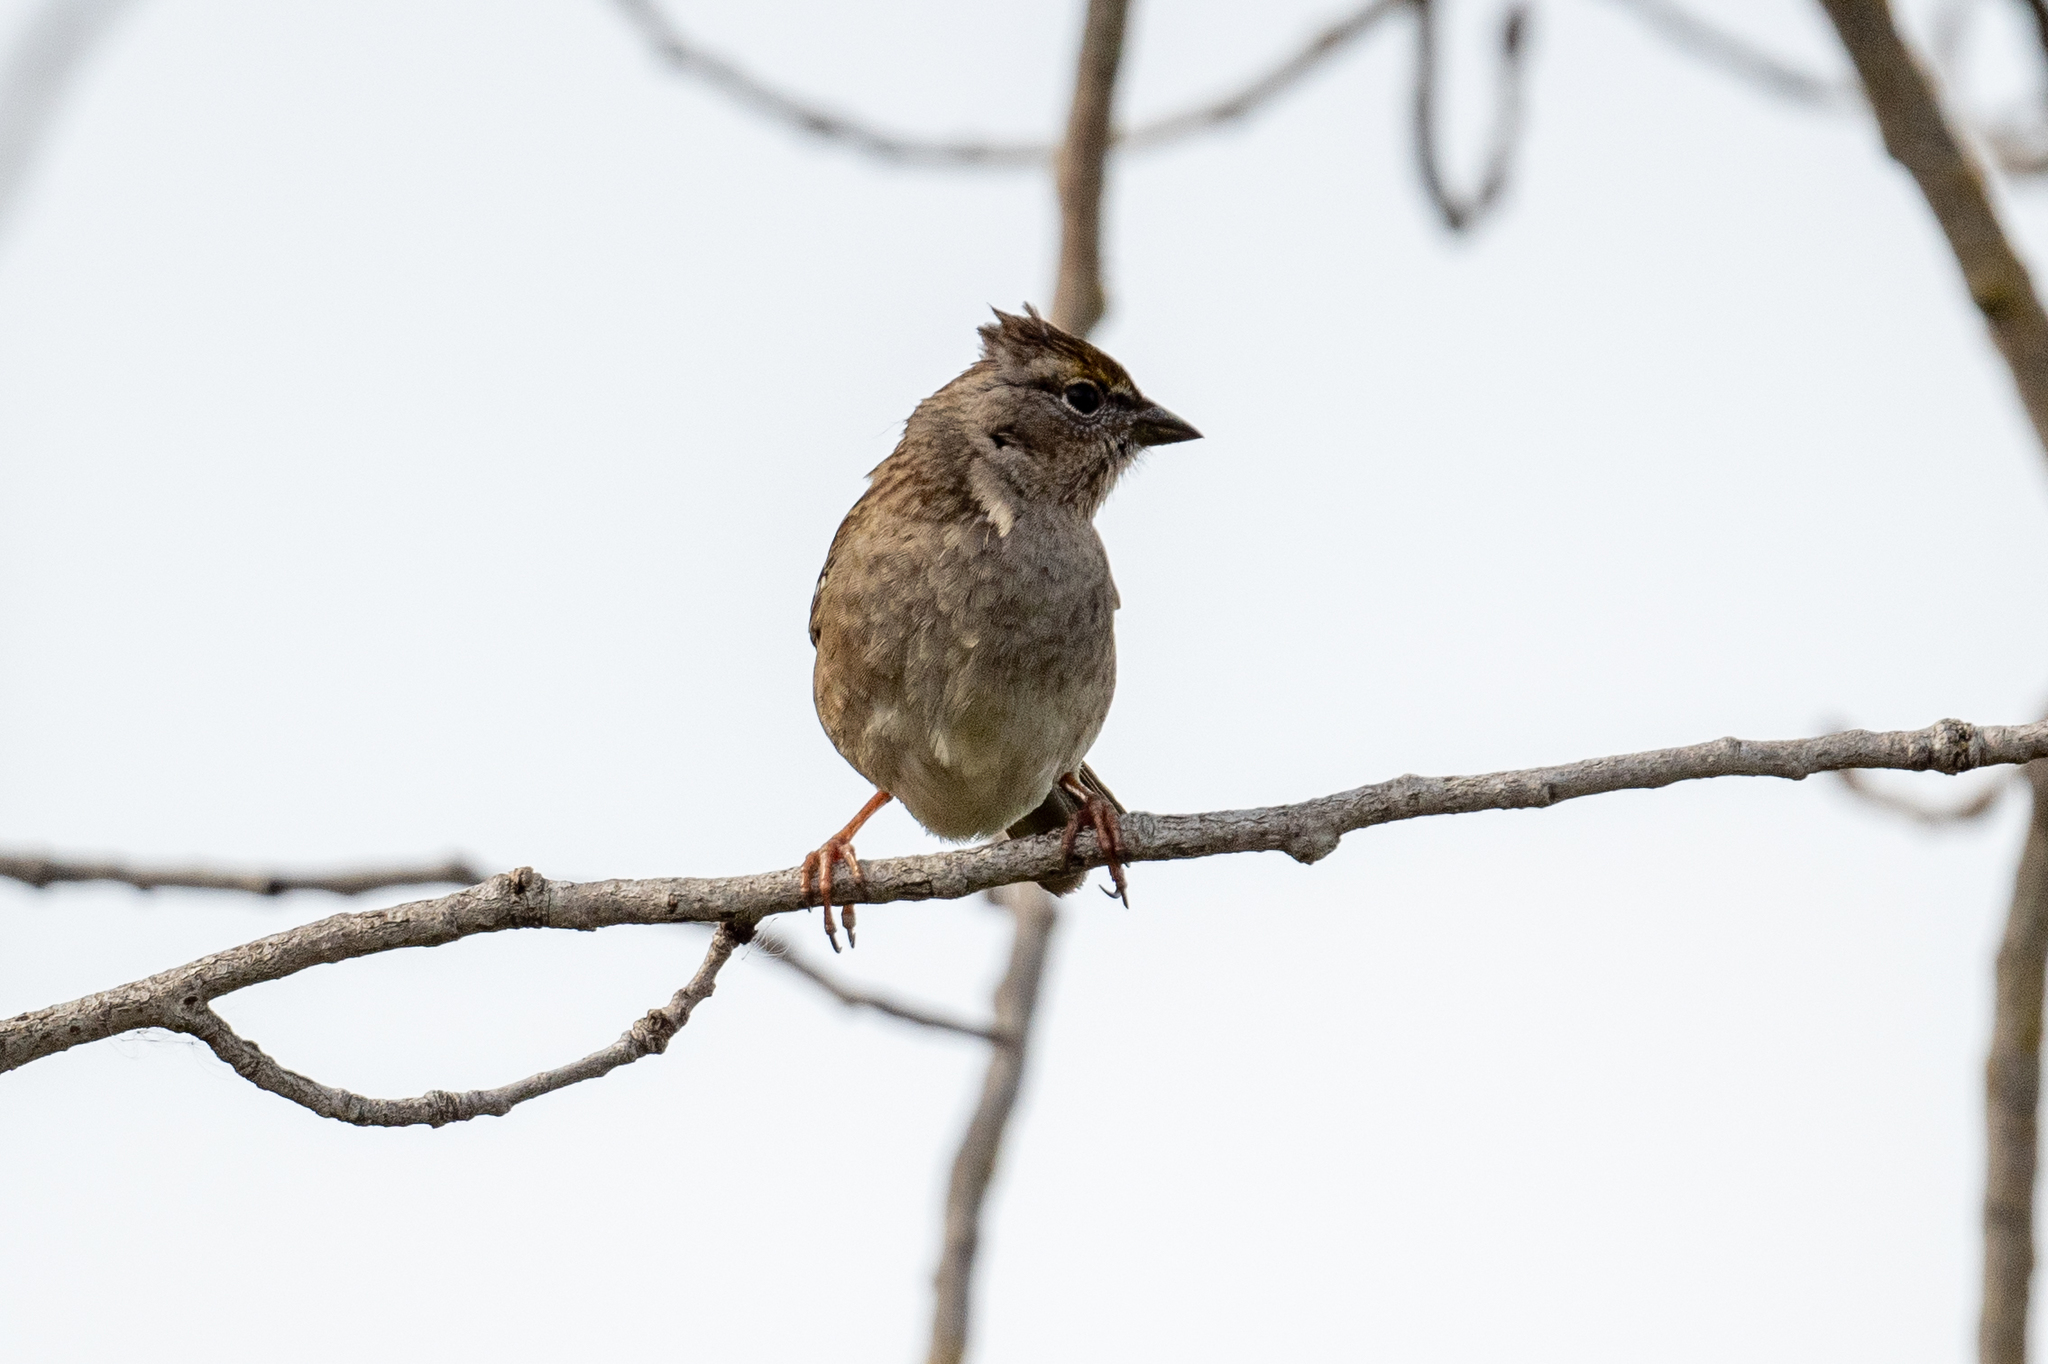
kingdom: Animalia
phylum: Chordata
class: Aves
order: Passeriformes
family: Passerellidae
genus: Zonotrichia
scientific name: Zonotrichia atricapilla
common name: Golden-crowned sparrow
